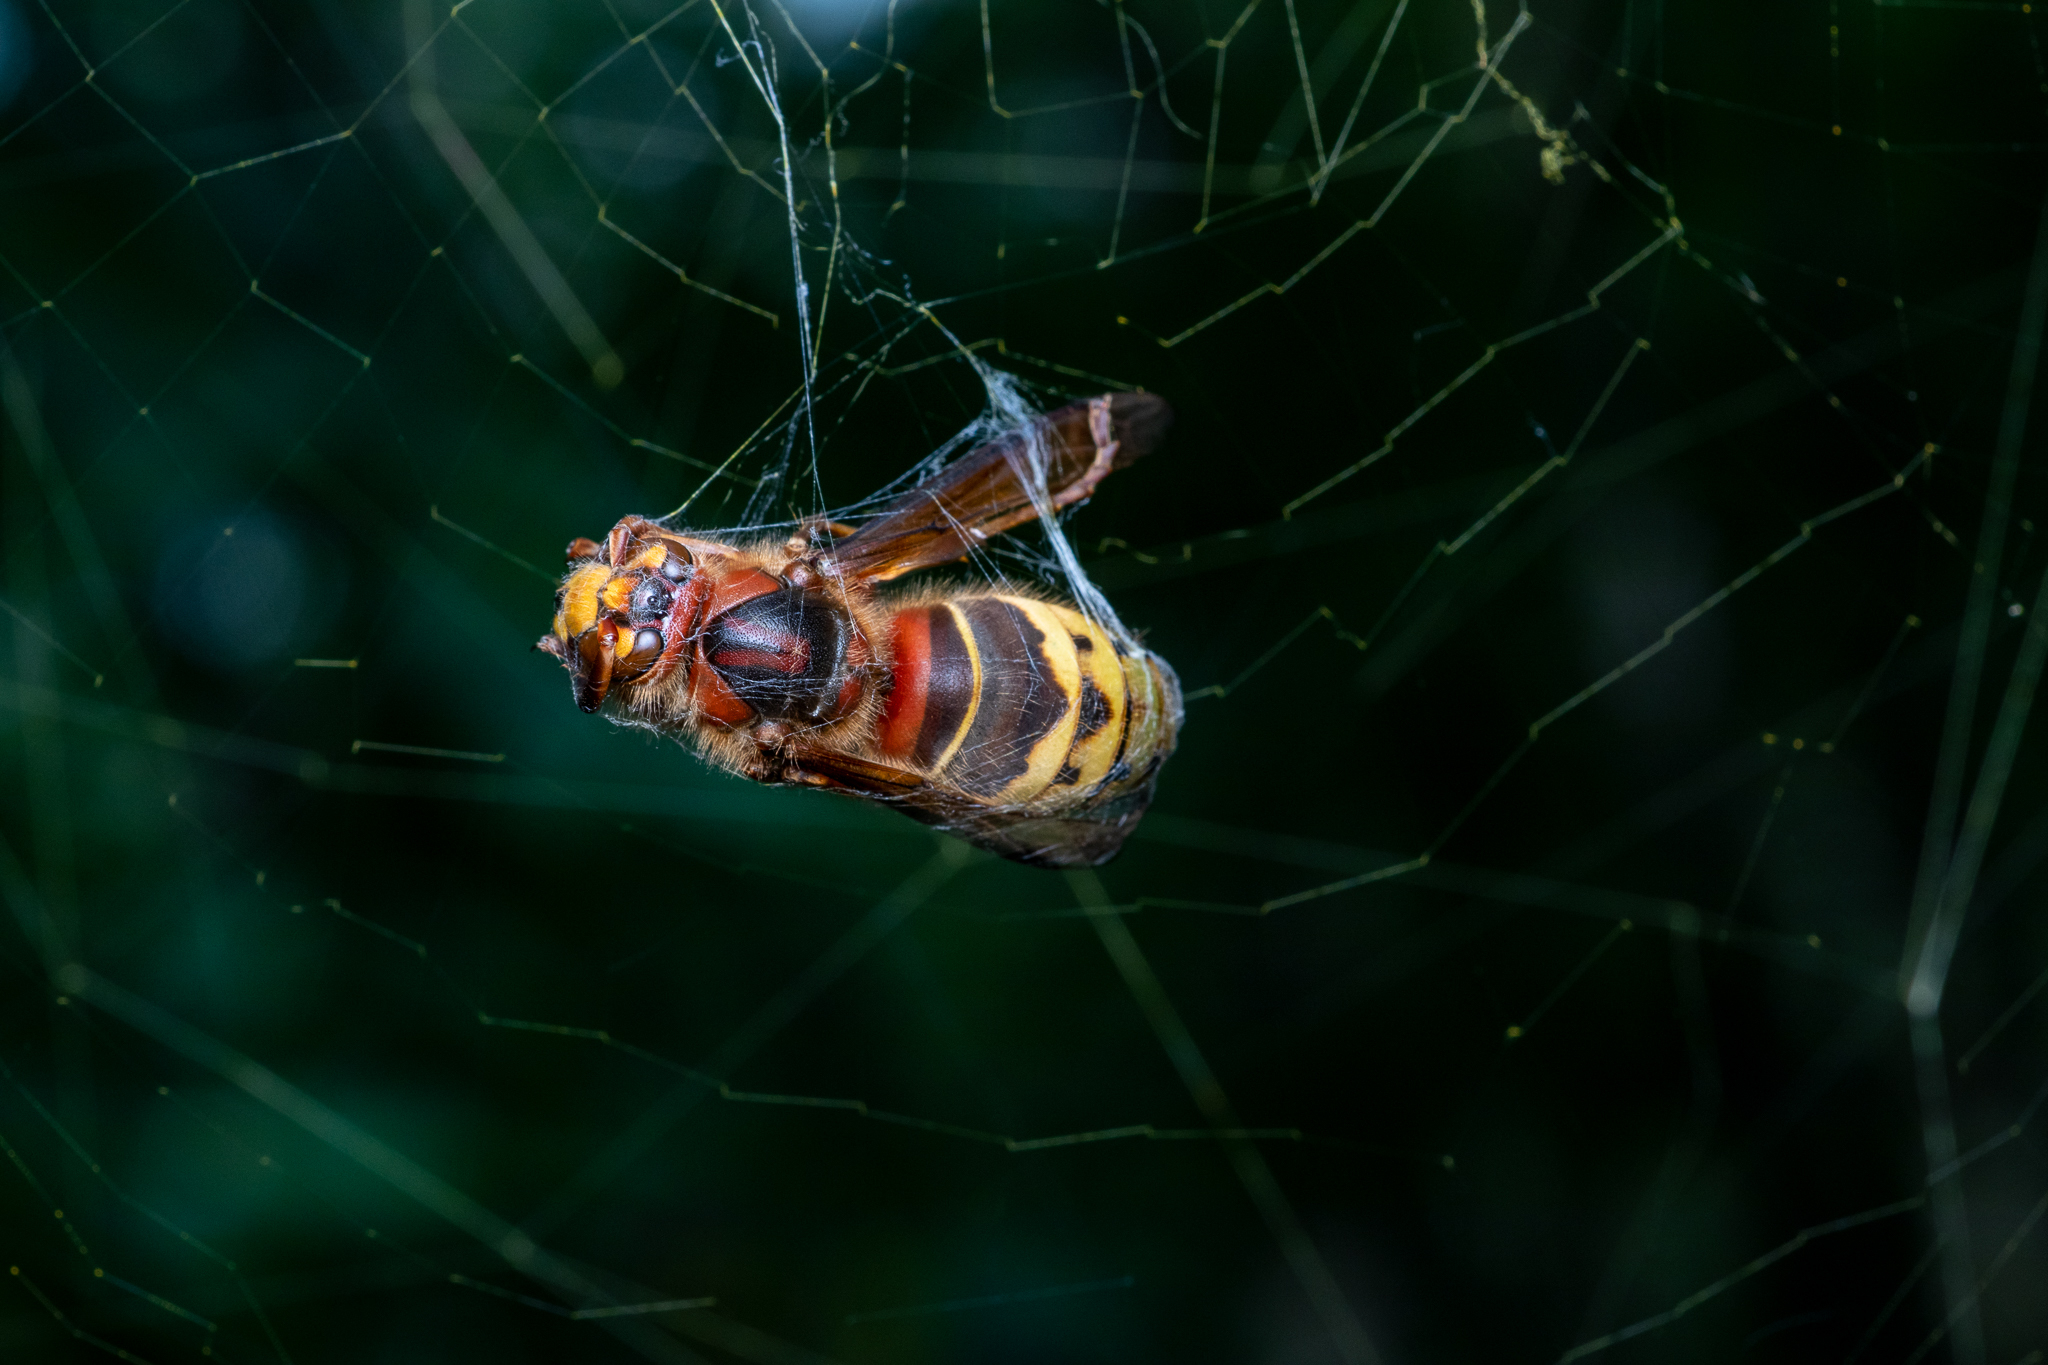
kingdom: Animalia
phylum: Arthropoda
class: Insecta
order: Hymenoptera
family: Vespidae
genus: Vespa
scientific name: Vespa crabro
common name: Hornet
